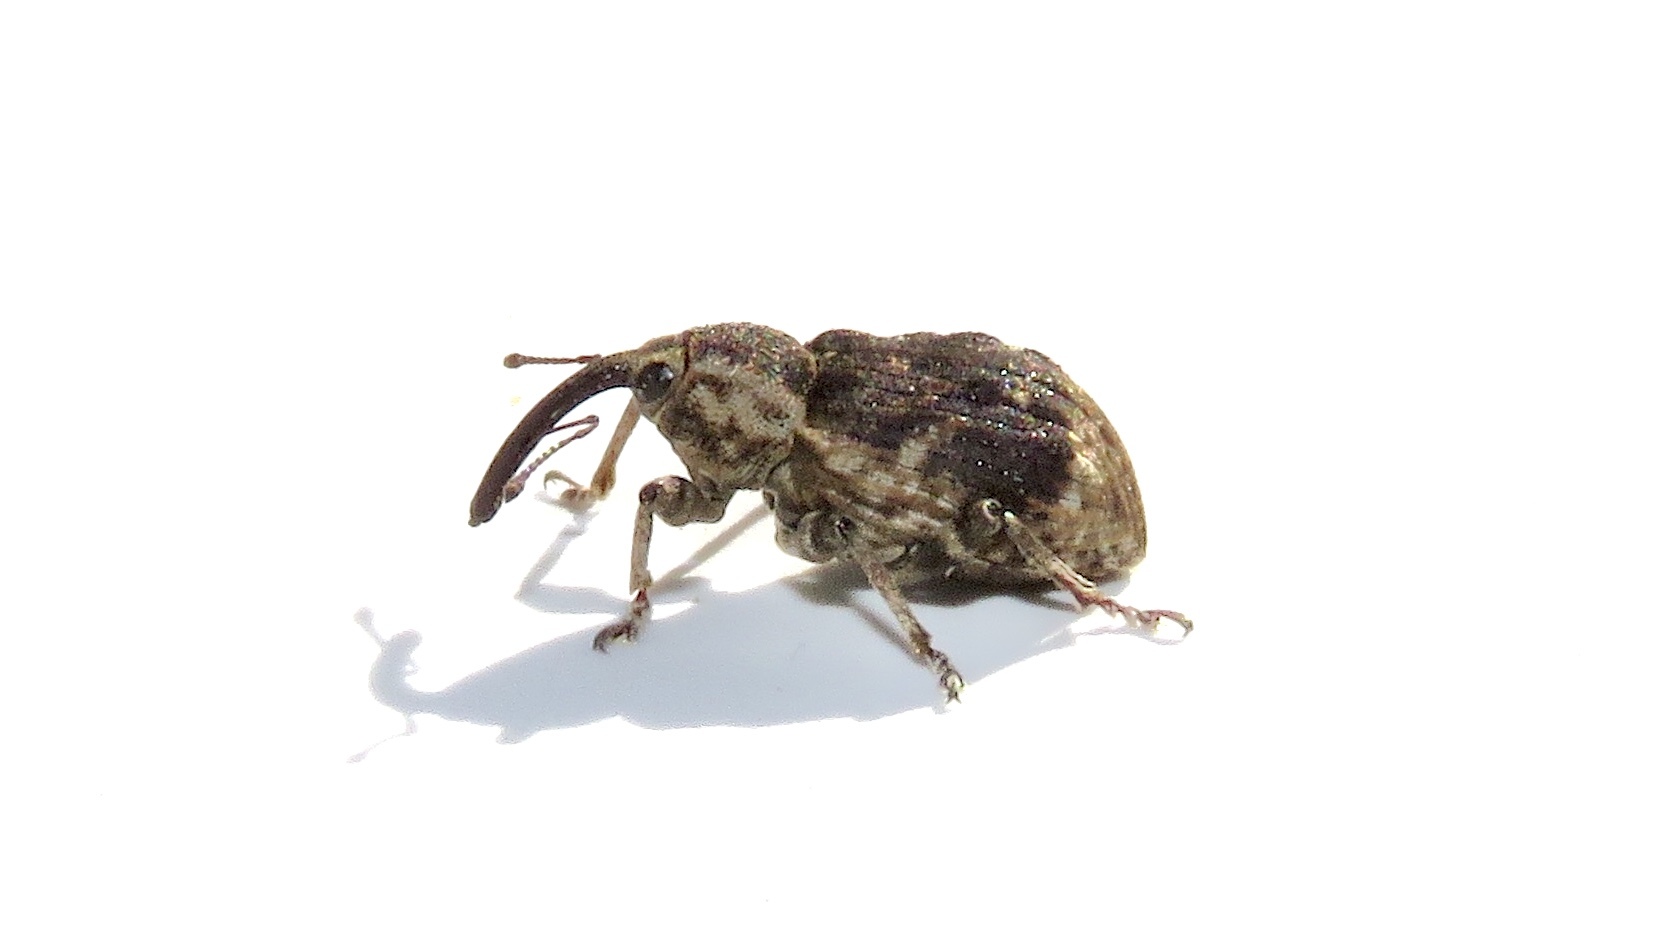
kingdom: Animalia
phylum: Arthropoda
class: Insecta
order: Coleoptera
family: Brachyceridae
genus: Grypus
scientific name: Grypus equiseti
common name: Horsetail weevil
